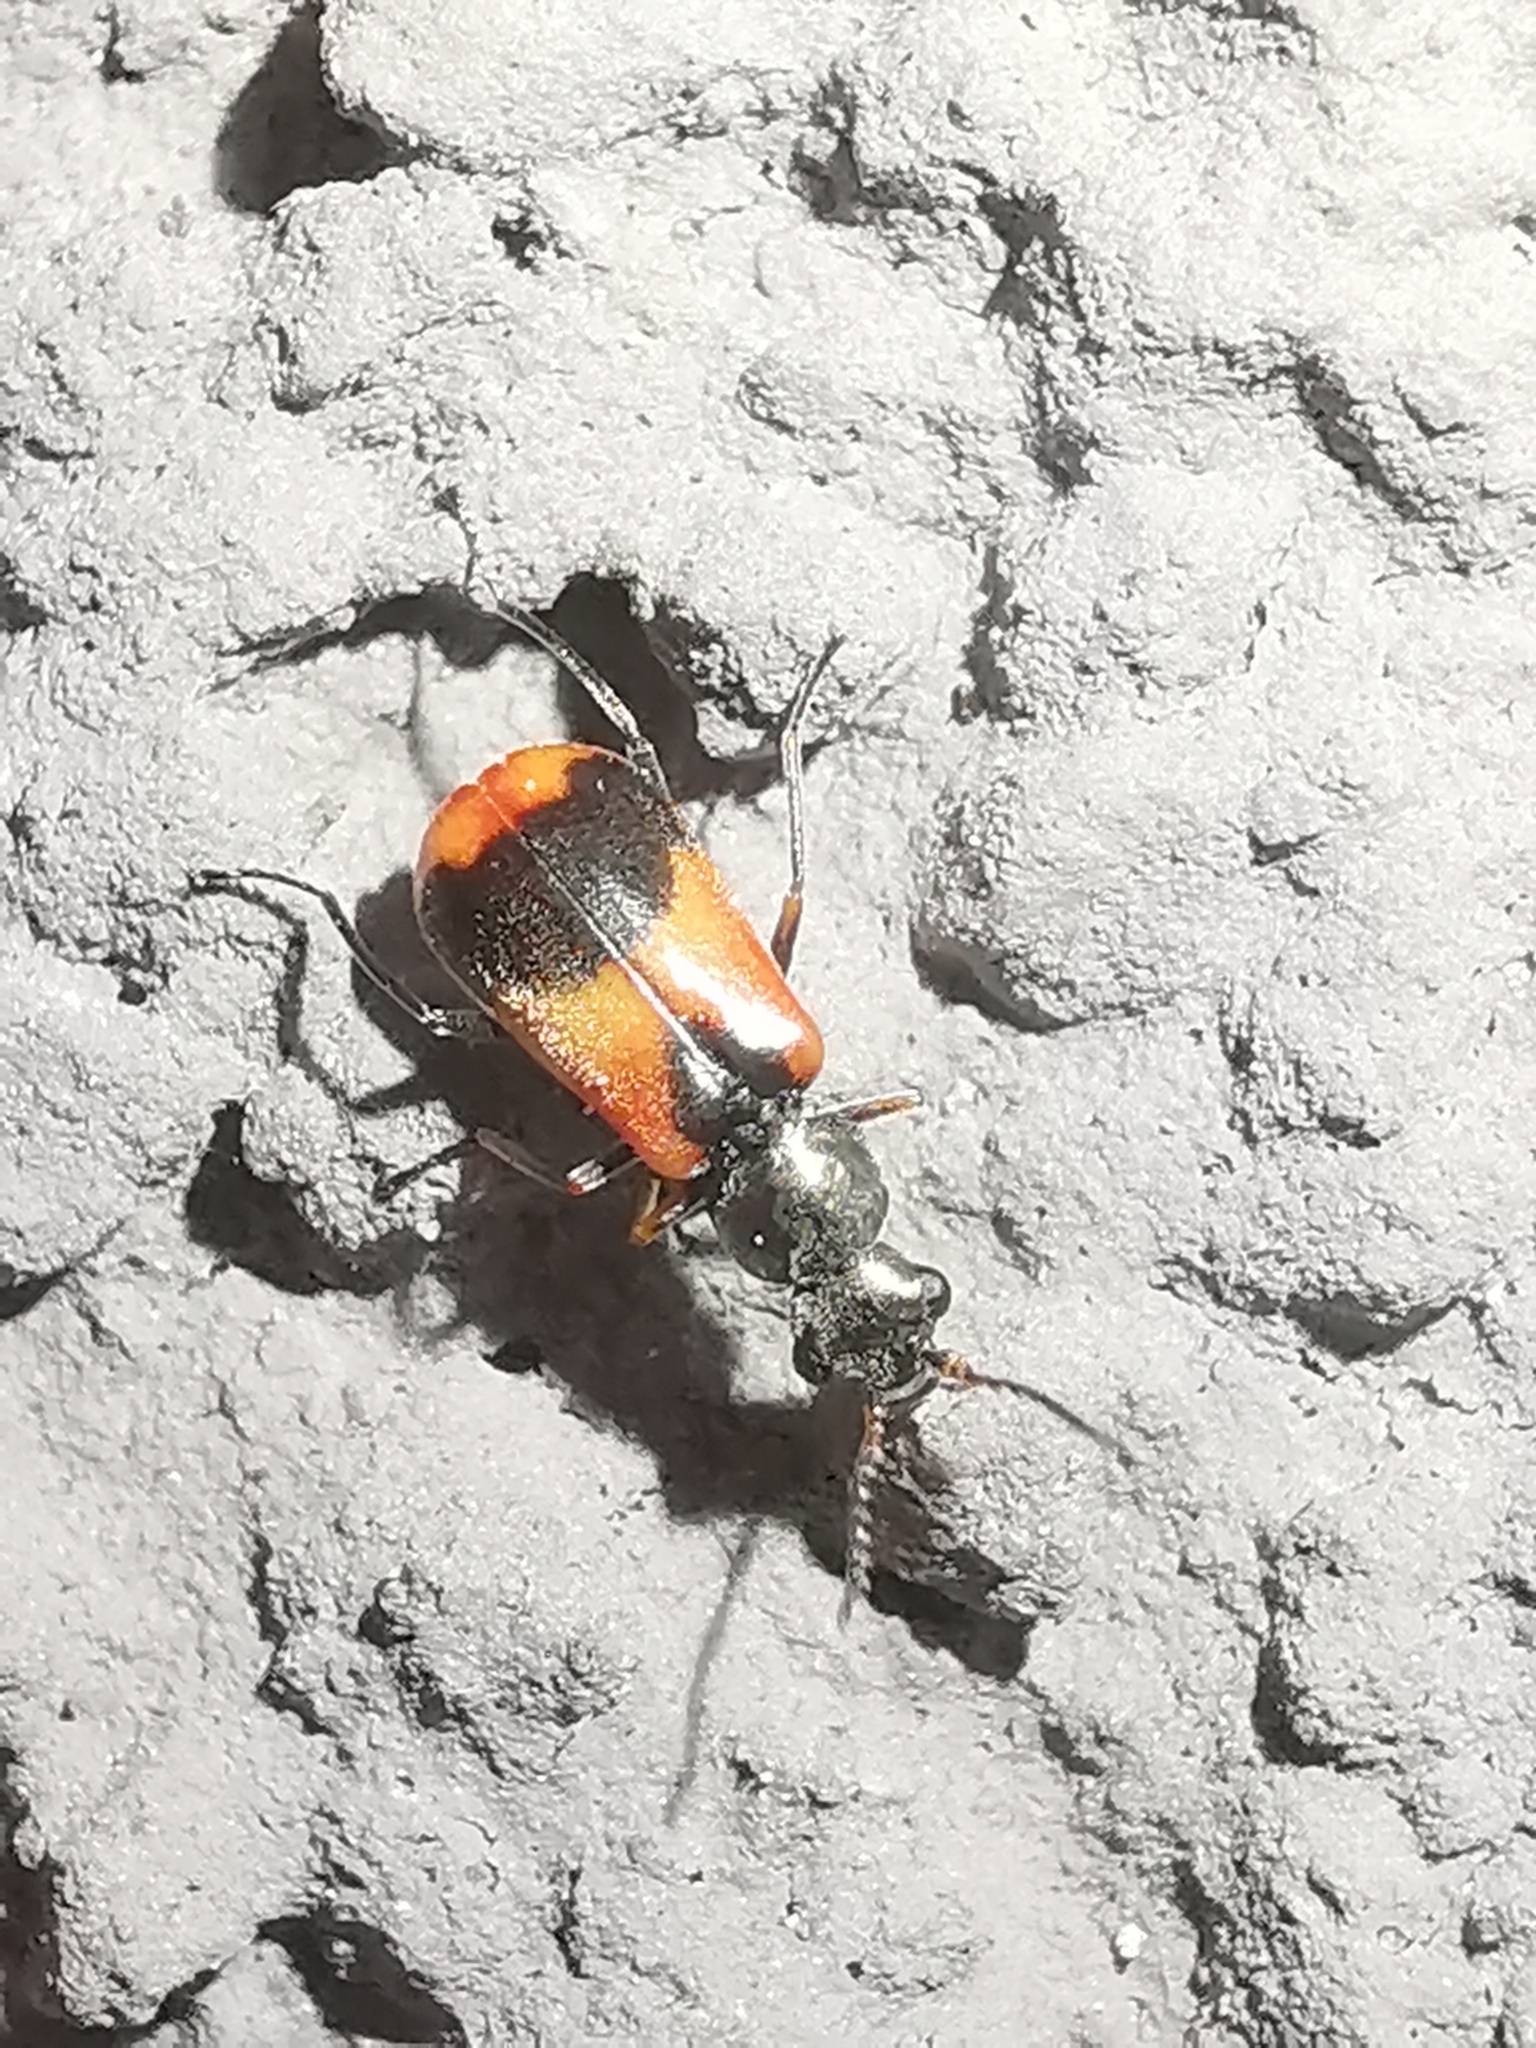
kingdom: Animalia
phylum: Arthropoda
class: Insecta
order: Coleoptera
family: Melyridae
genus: Anthocomus
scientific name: Anthocomus equestris
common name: Black-banded soft-winged flower beetle
